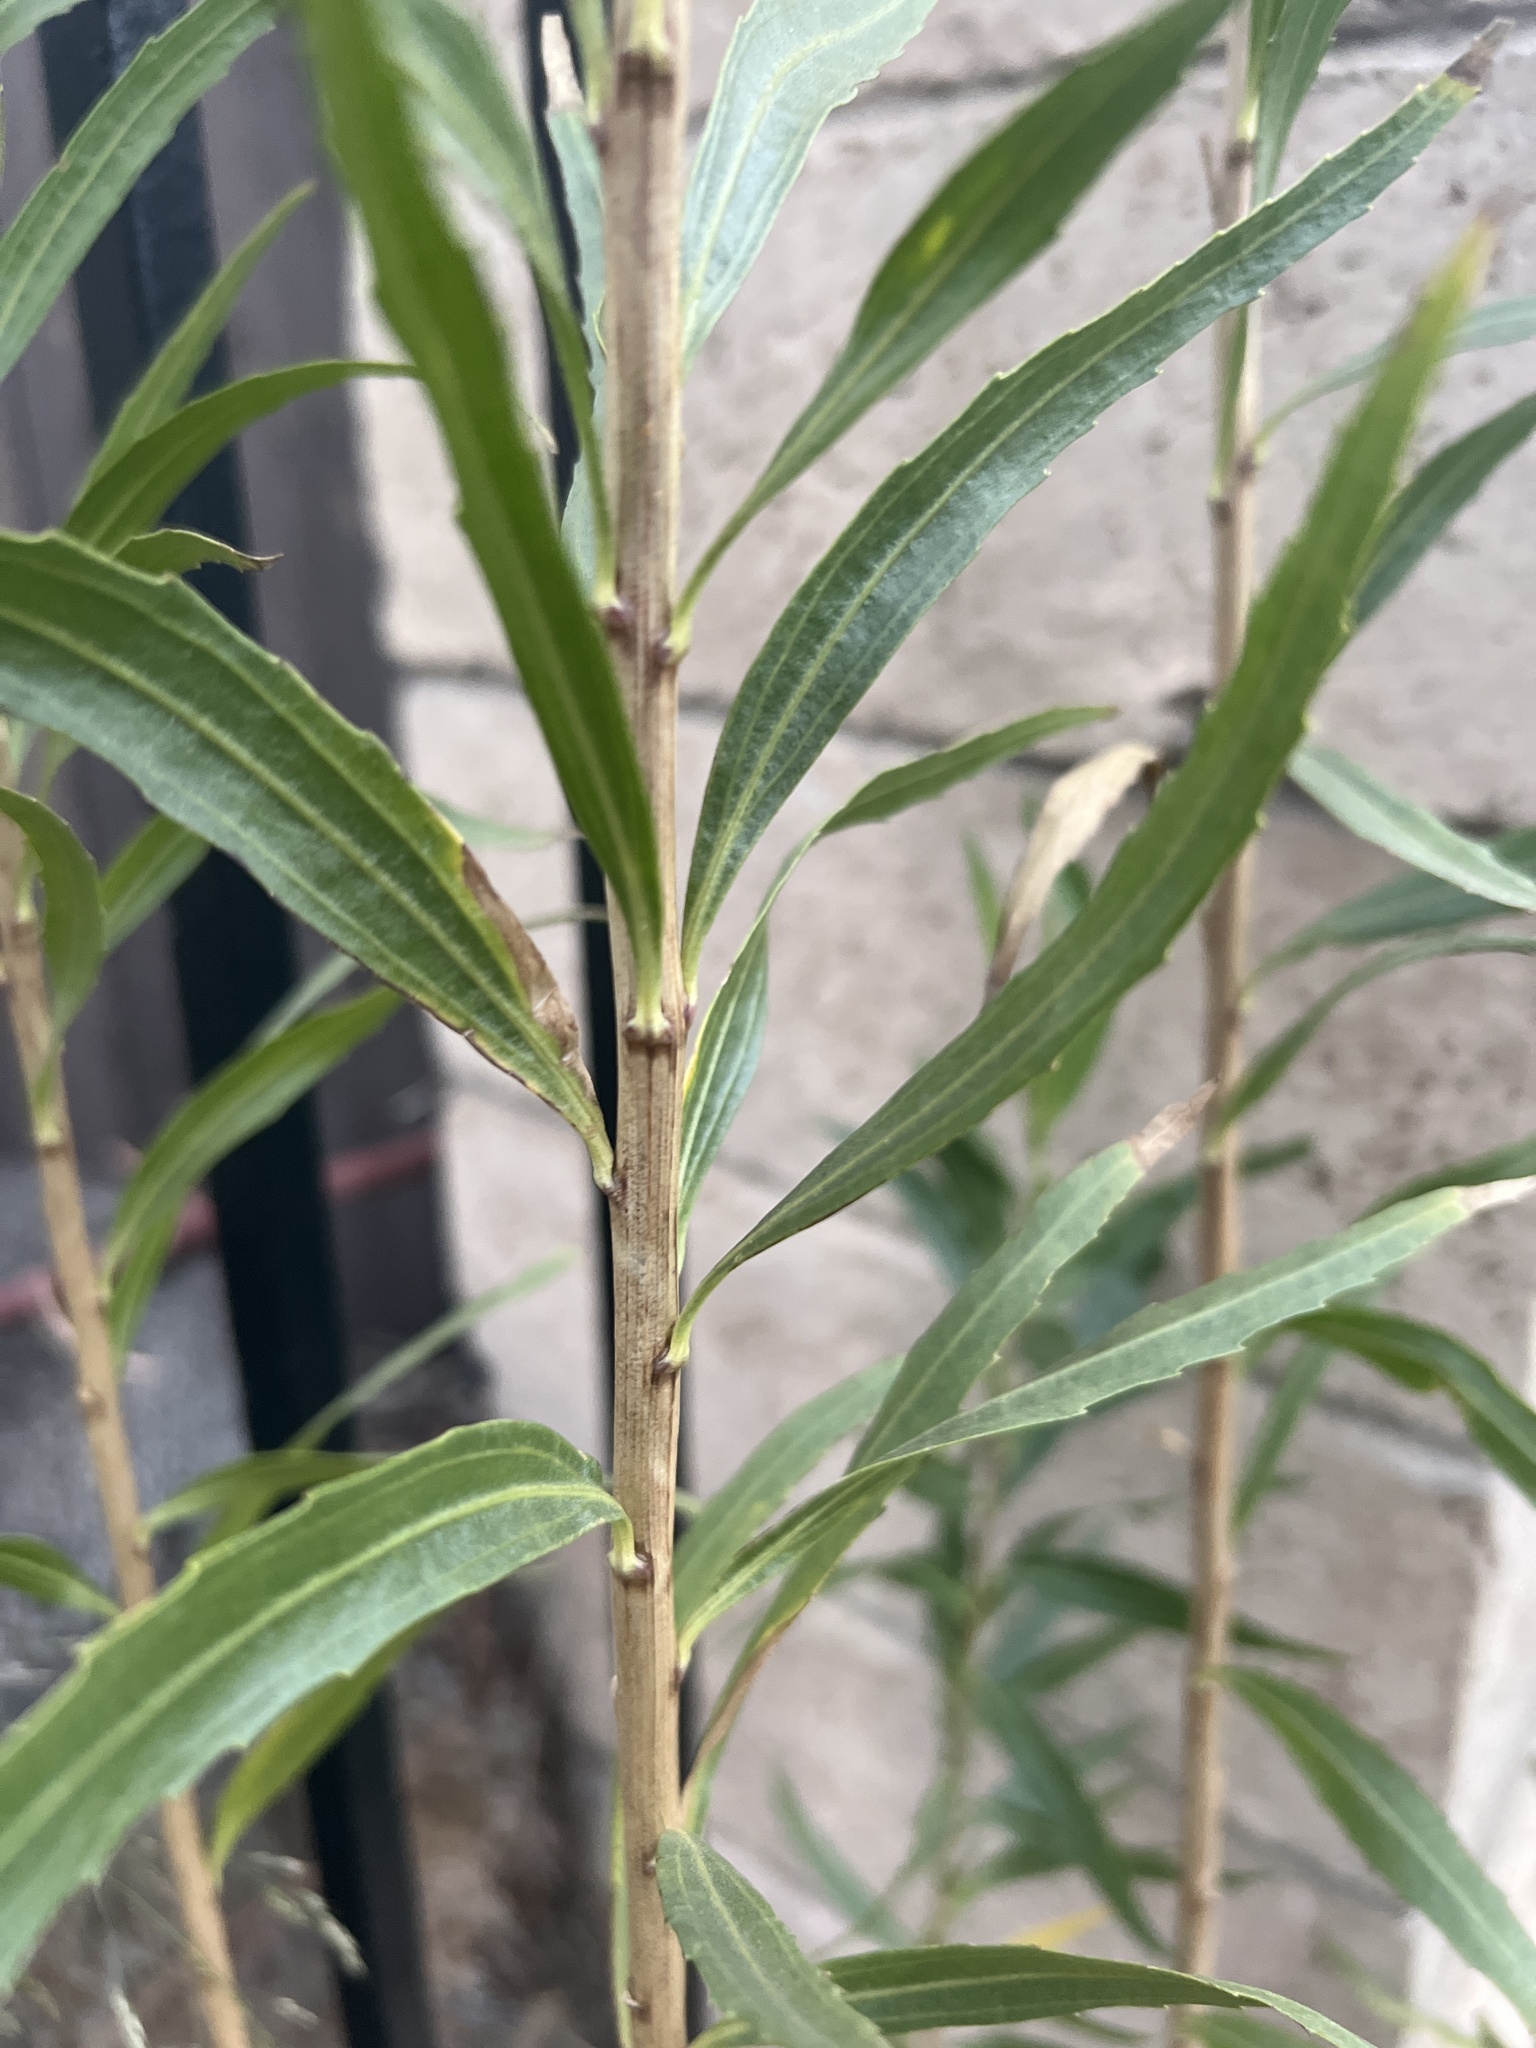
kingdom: Plantae
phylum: Tracheophyta
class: Magnoliopsida
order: Asterales
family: Asteraceae
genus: Baccharis
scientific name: Baccharis salicifolia
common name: Sticky baccharis
